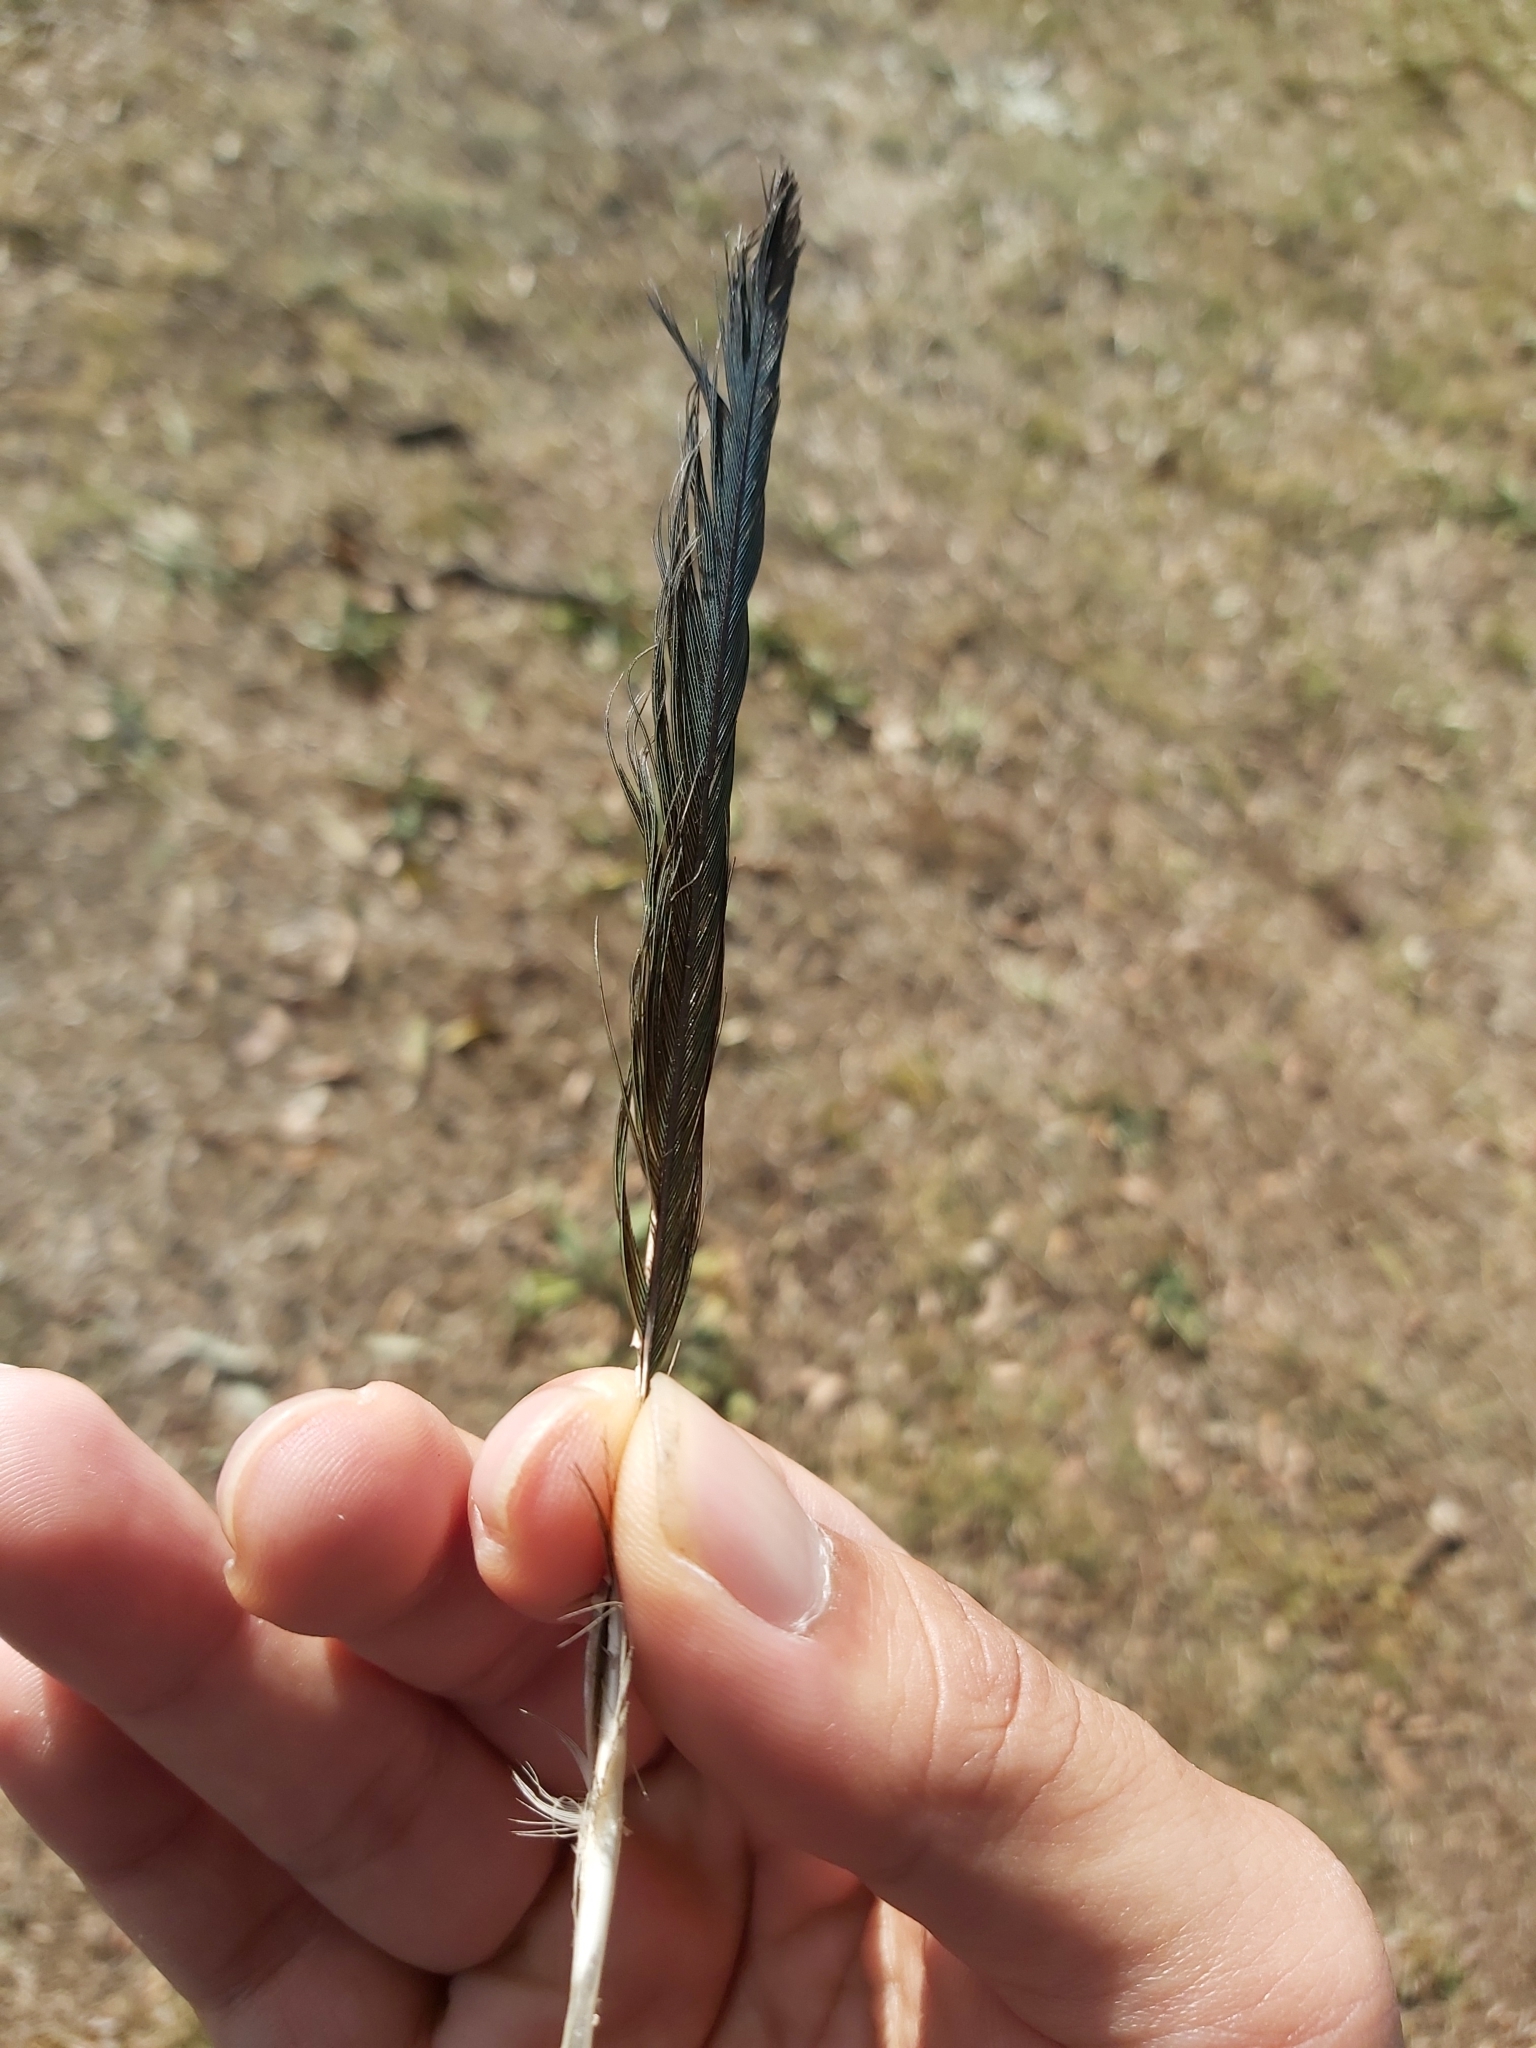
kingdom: Animalia
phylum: Chordata
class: Aves
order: Psittaciformes
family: Psittacidae
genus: Psephotus
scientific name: Psephotus haematonotus
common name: Red-rumped parrot
